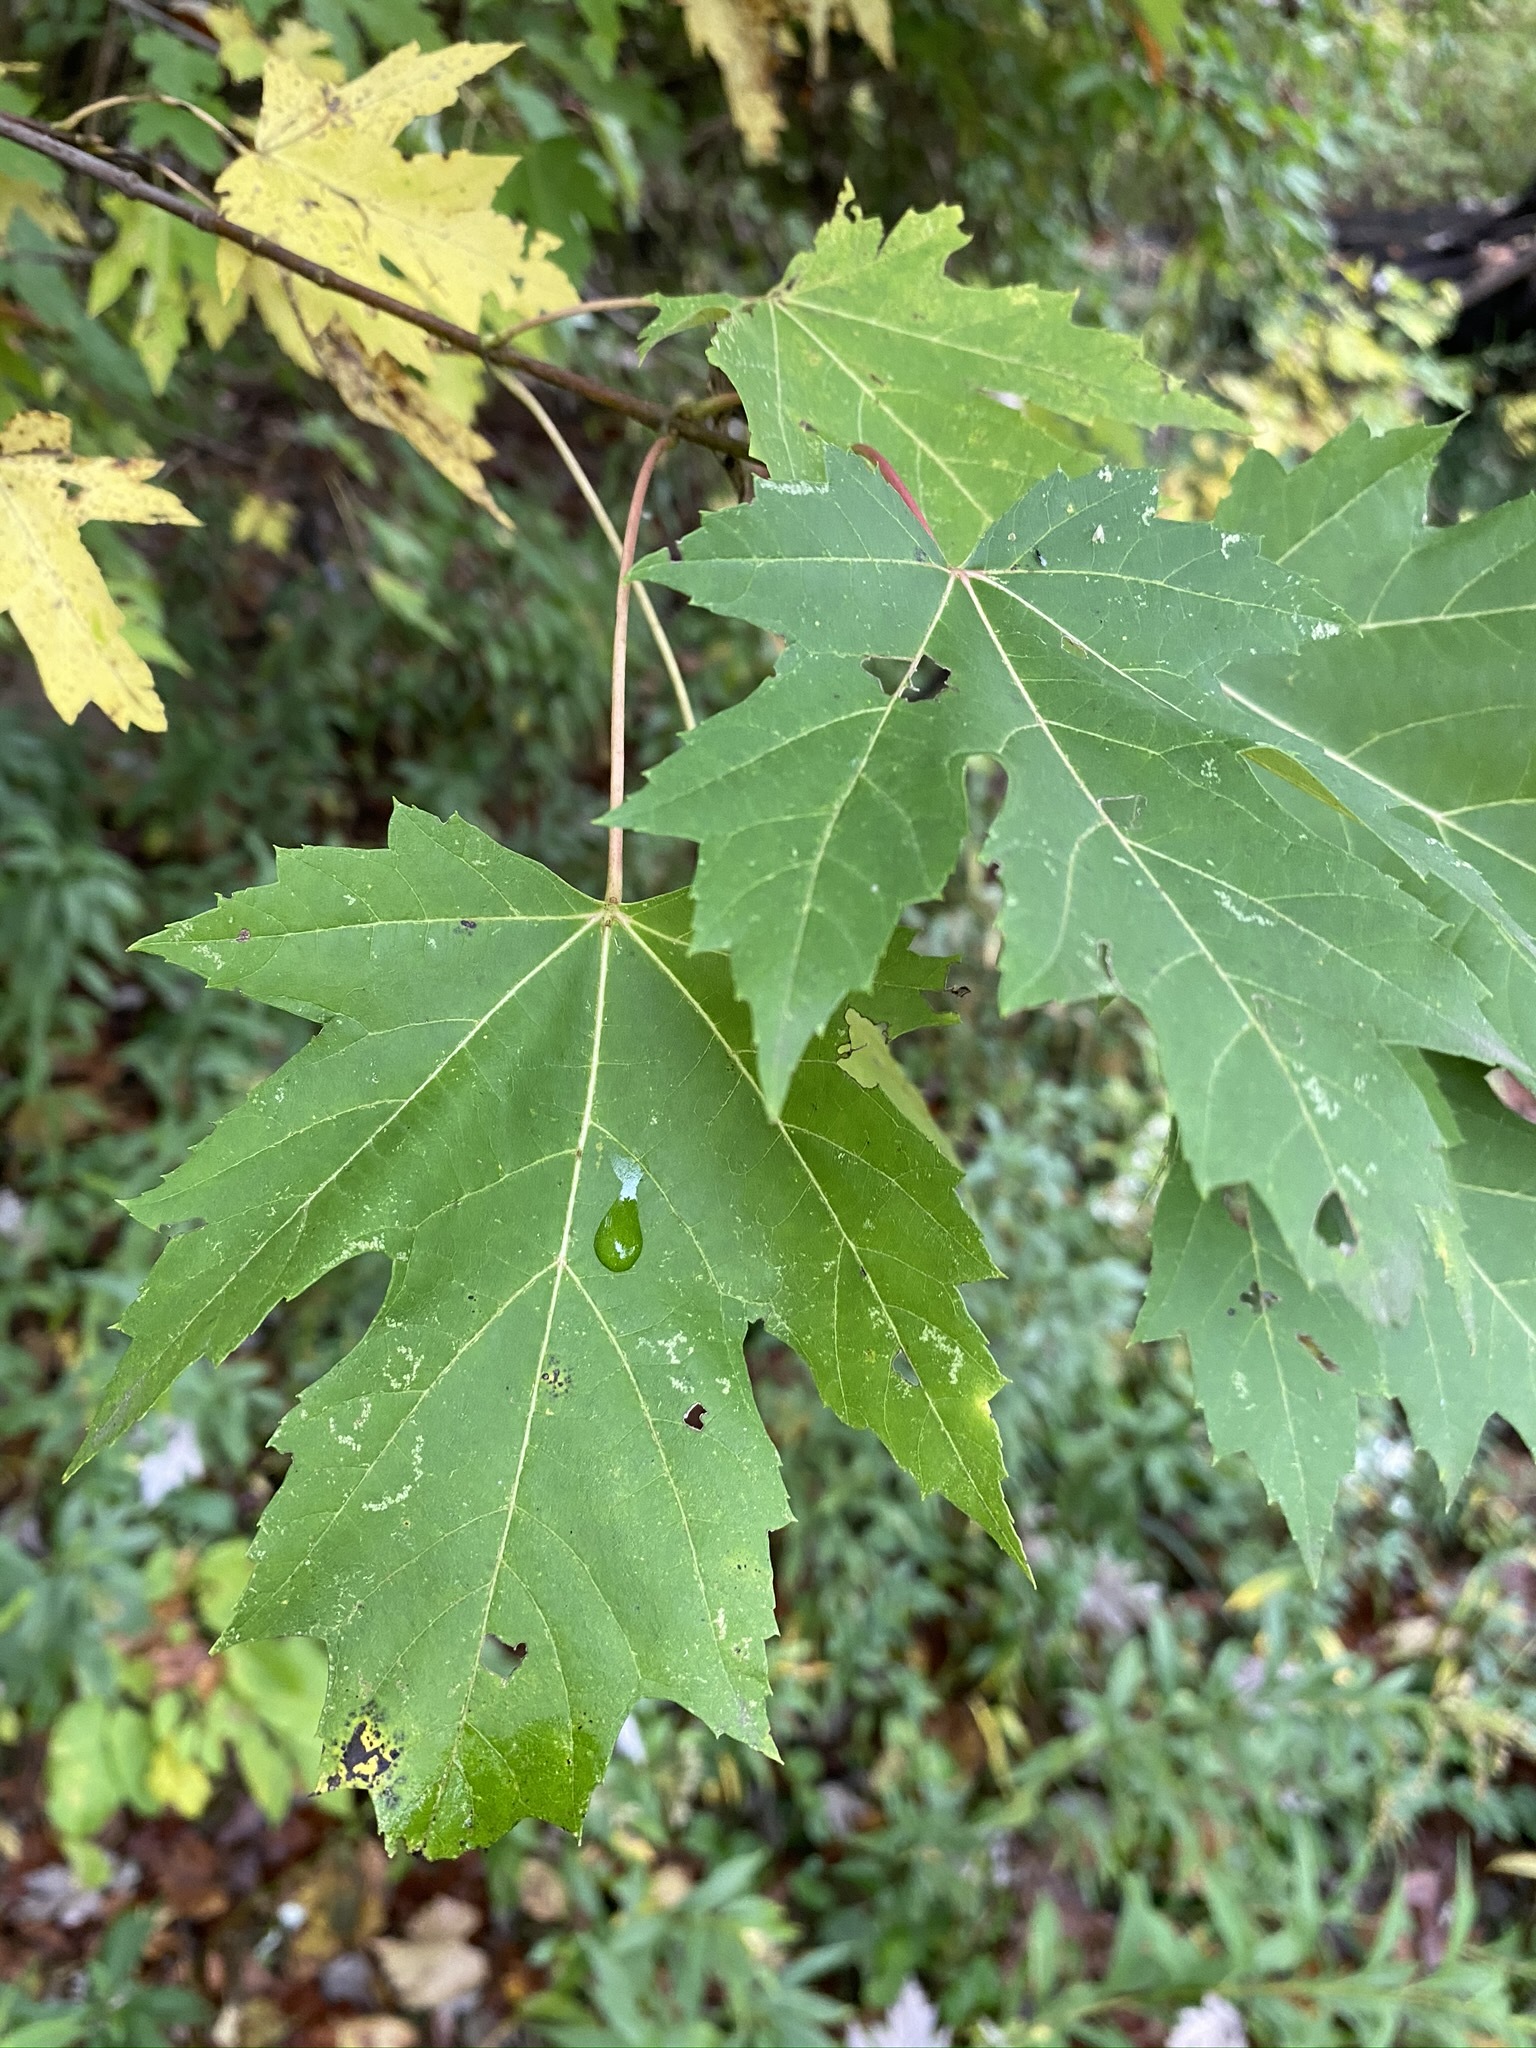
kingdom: Plantae
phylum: Tracheophyta
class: Magnoliopsida
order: Sapindales
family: Sapindaceae
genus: Acer
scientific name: Acer saccharinum
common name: Silver maple
